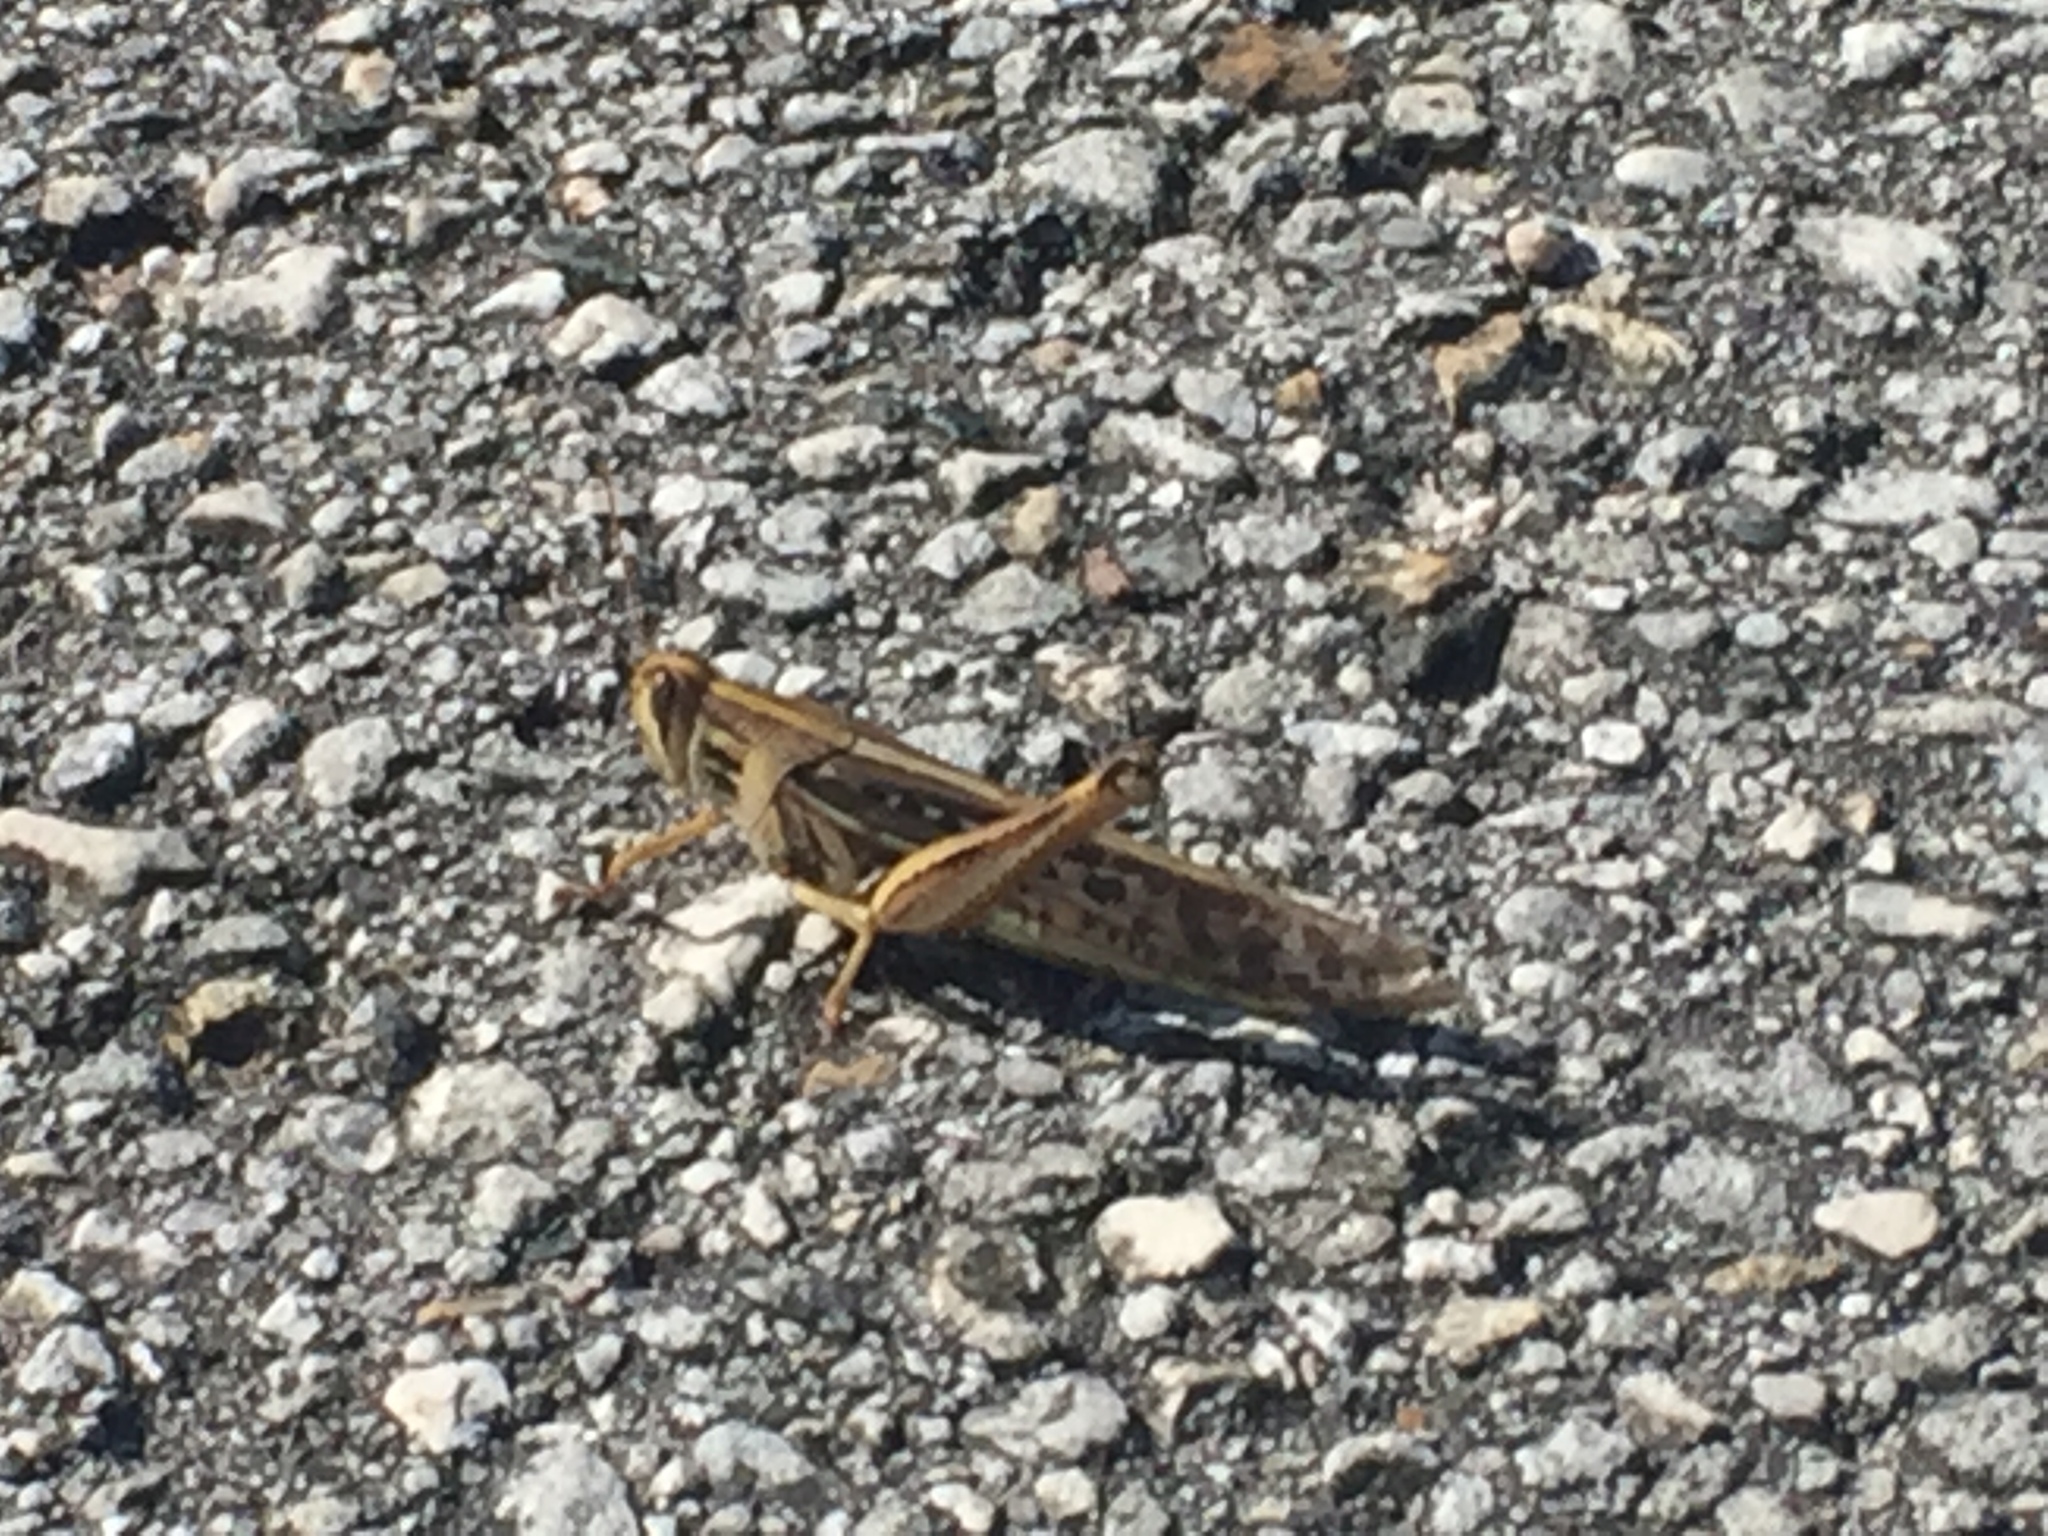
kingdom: Animalia
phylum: Arthropoda
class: Insecta
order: Orthoptera
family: Acrididae
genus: Schistocerca
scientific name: Schistocerca americana
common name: American bird locust
